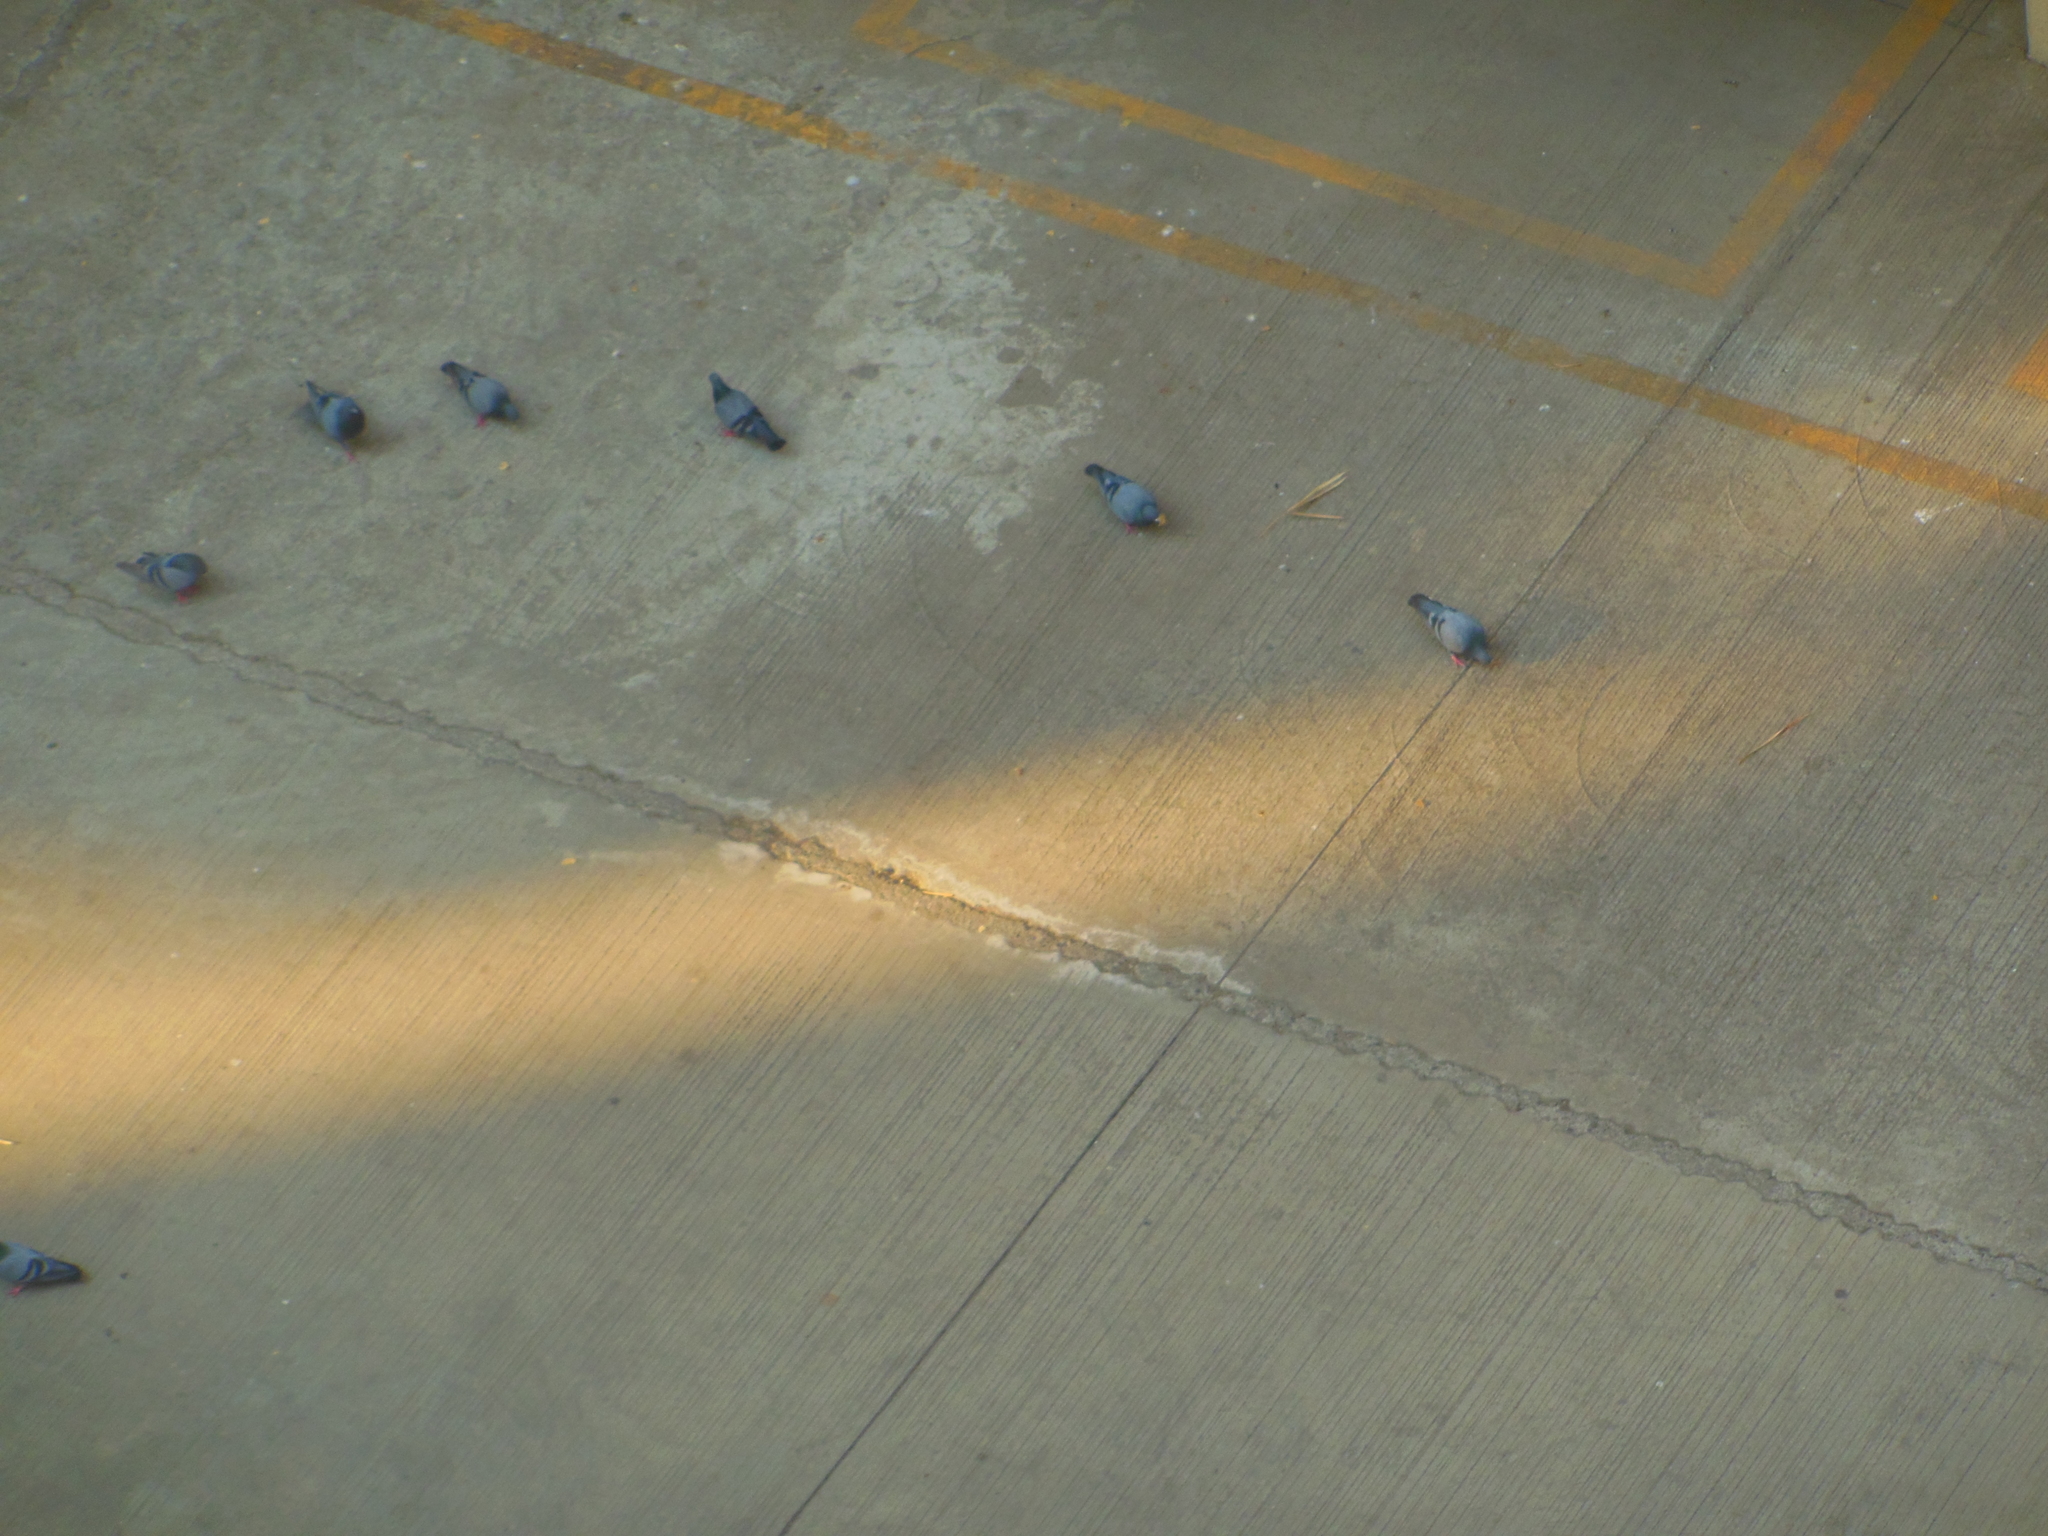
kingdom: Animalia
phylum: Chordata
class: Aves
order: Columbiformes
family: Columbidae
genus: Columba
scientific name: Columba livia
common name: Rock pigeon
